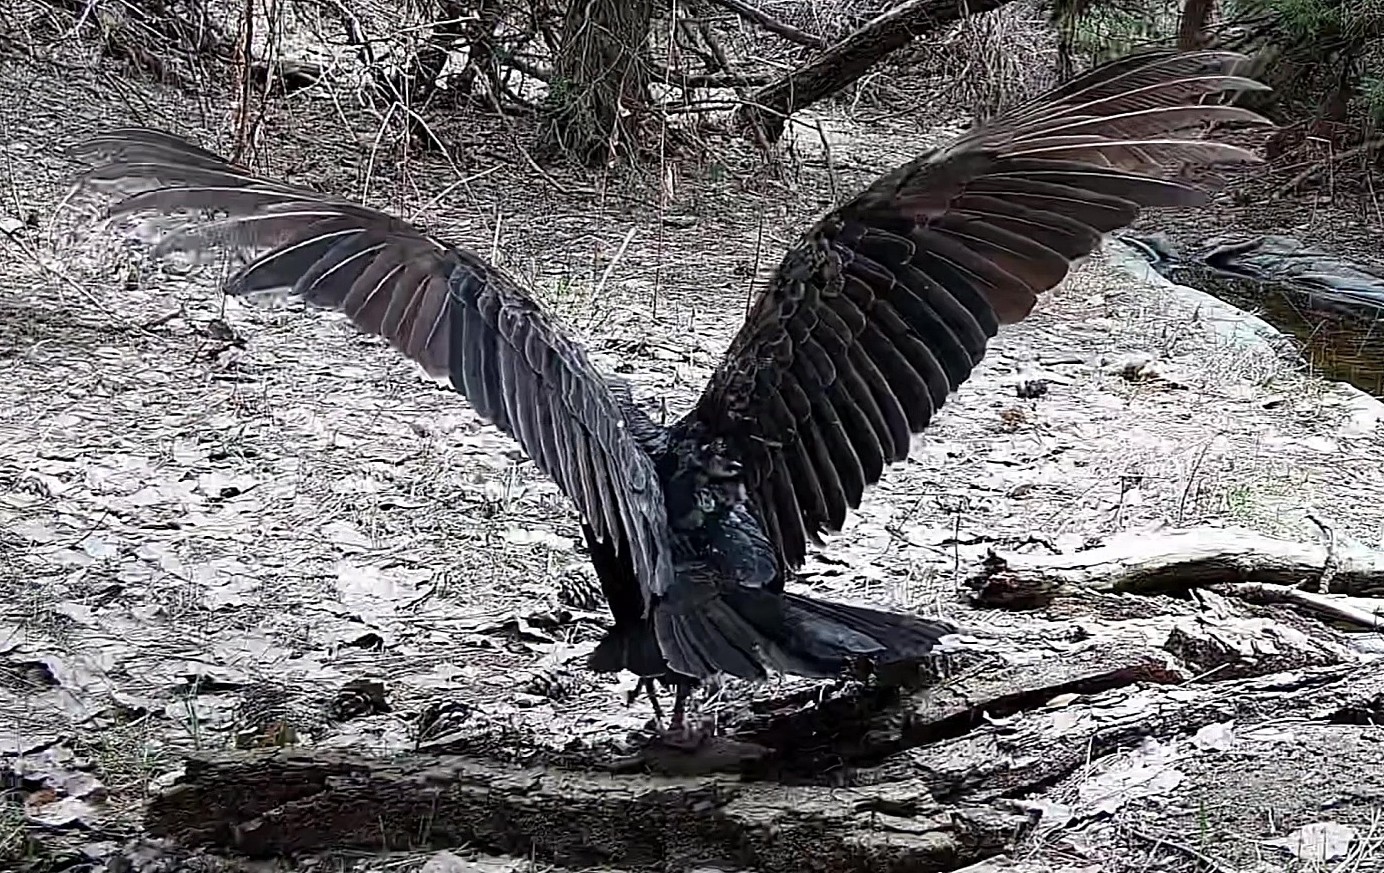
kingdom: Animalia
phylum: Chordata
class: Aves
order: Accipitriformes
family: Cathartidae
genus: Cathartes
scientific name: Cathartes aura
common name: Turkey vulture
